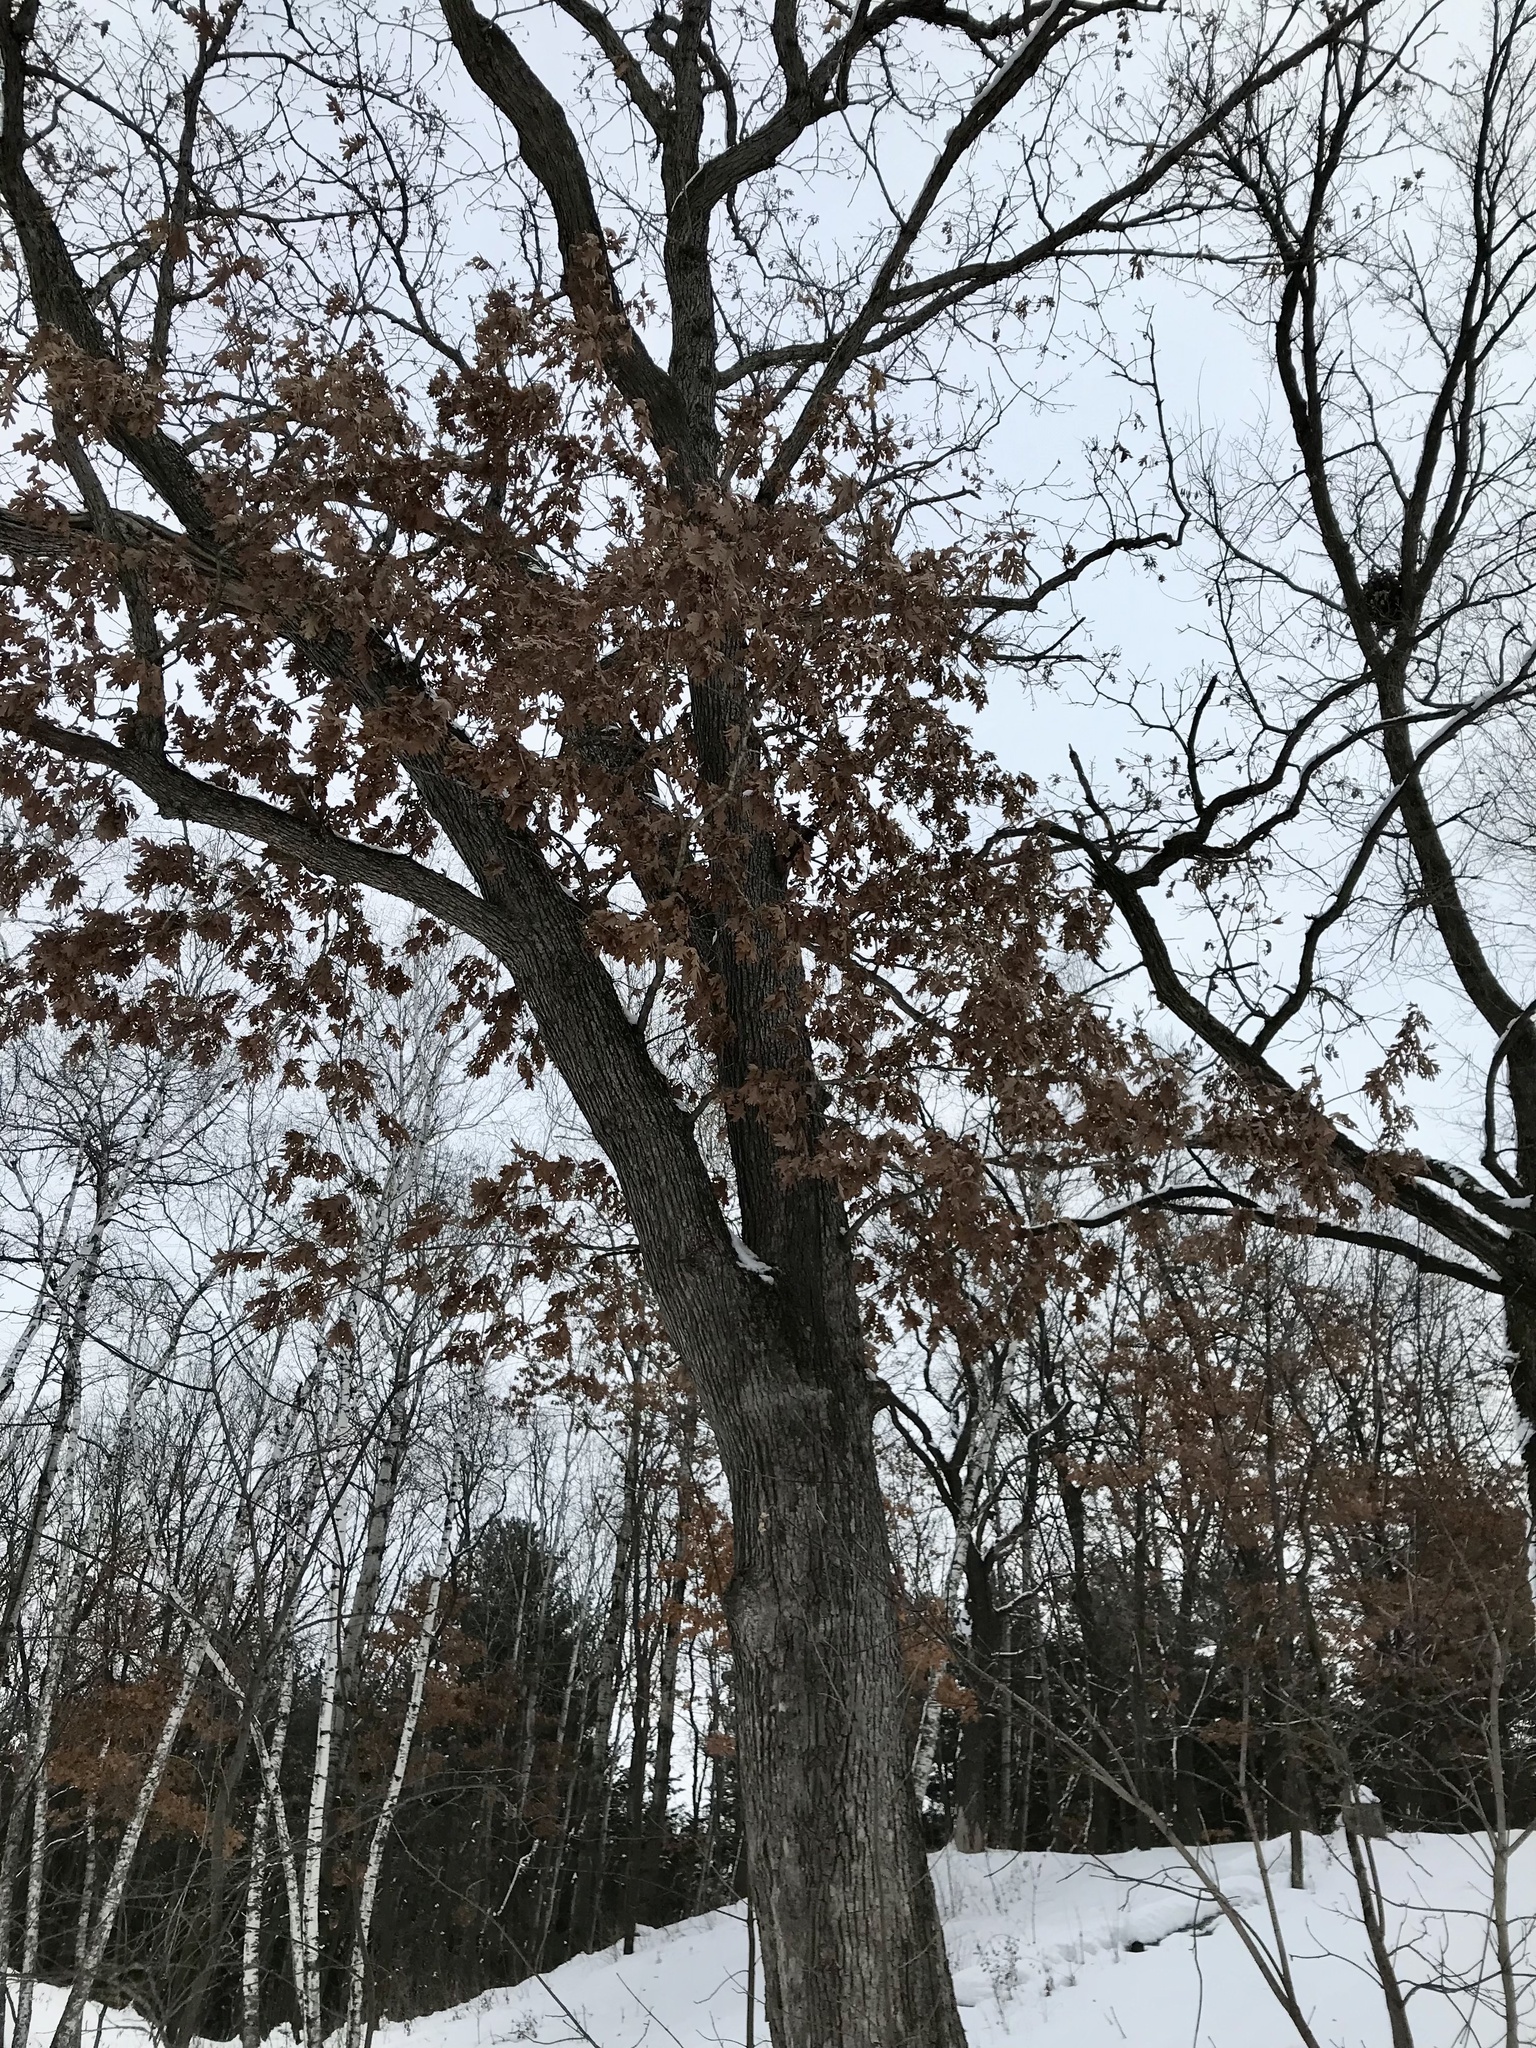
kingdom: Plantae
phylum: Tracheophyta
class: Magnoliopsida
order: Fagales
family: Fagaceae
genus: Quercus
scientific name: Quercus alba
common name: White oak
